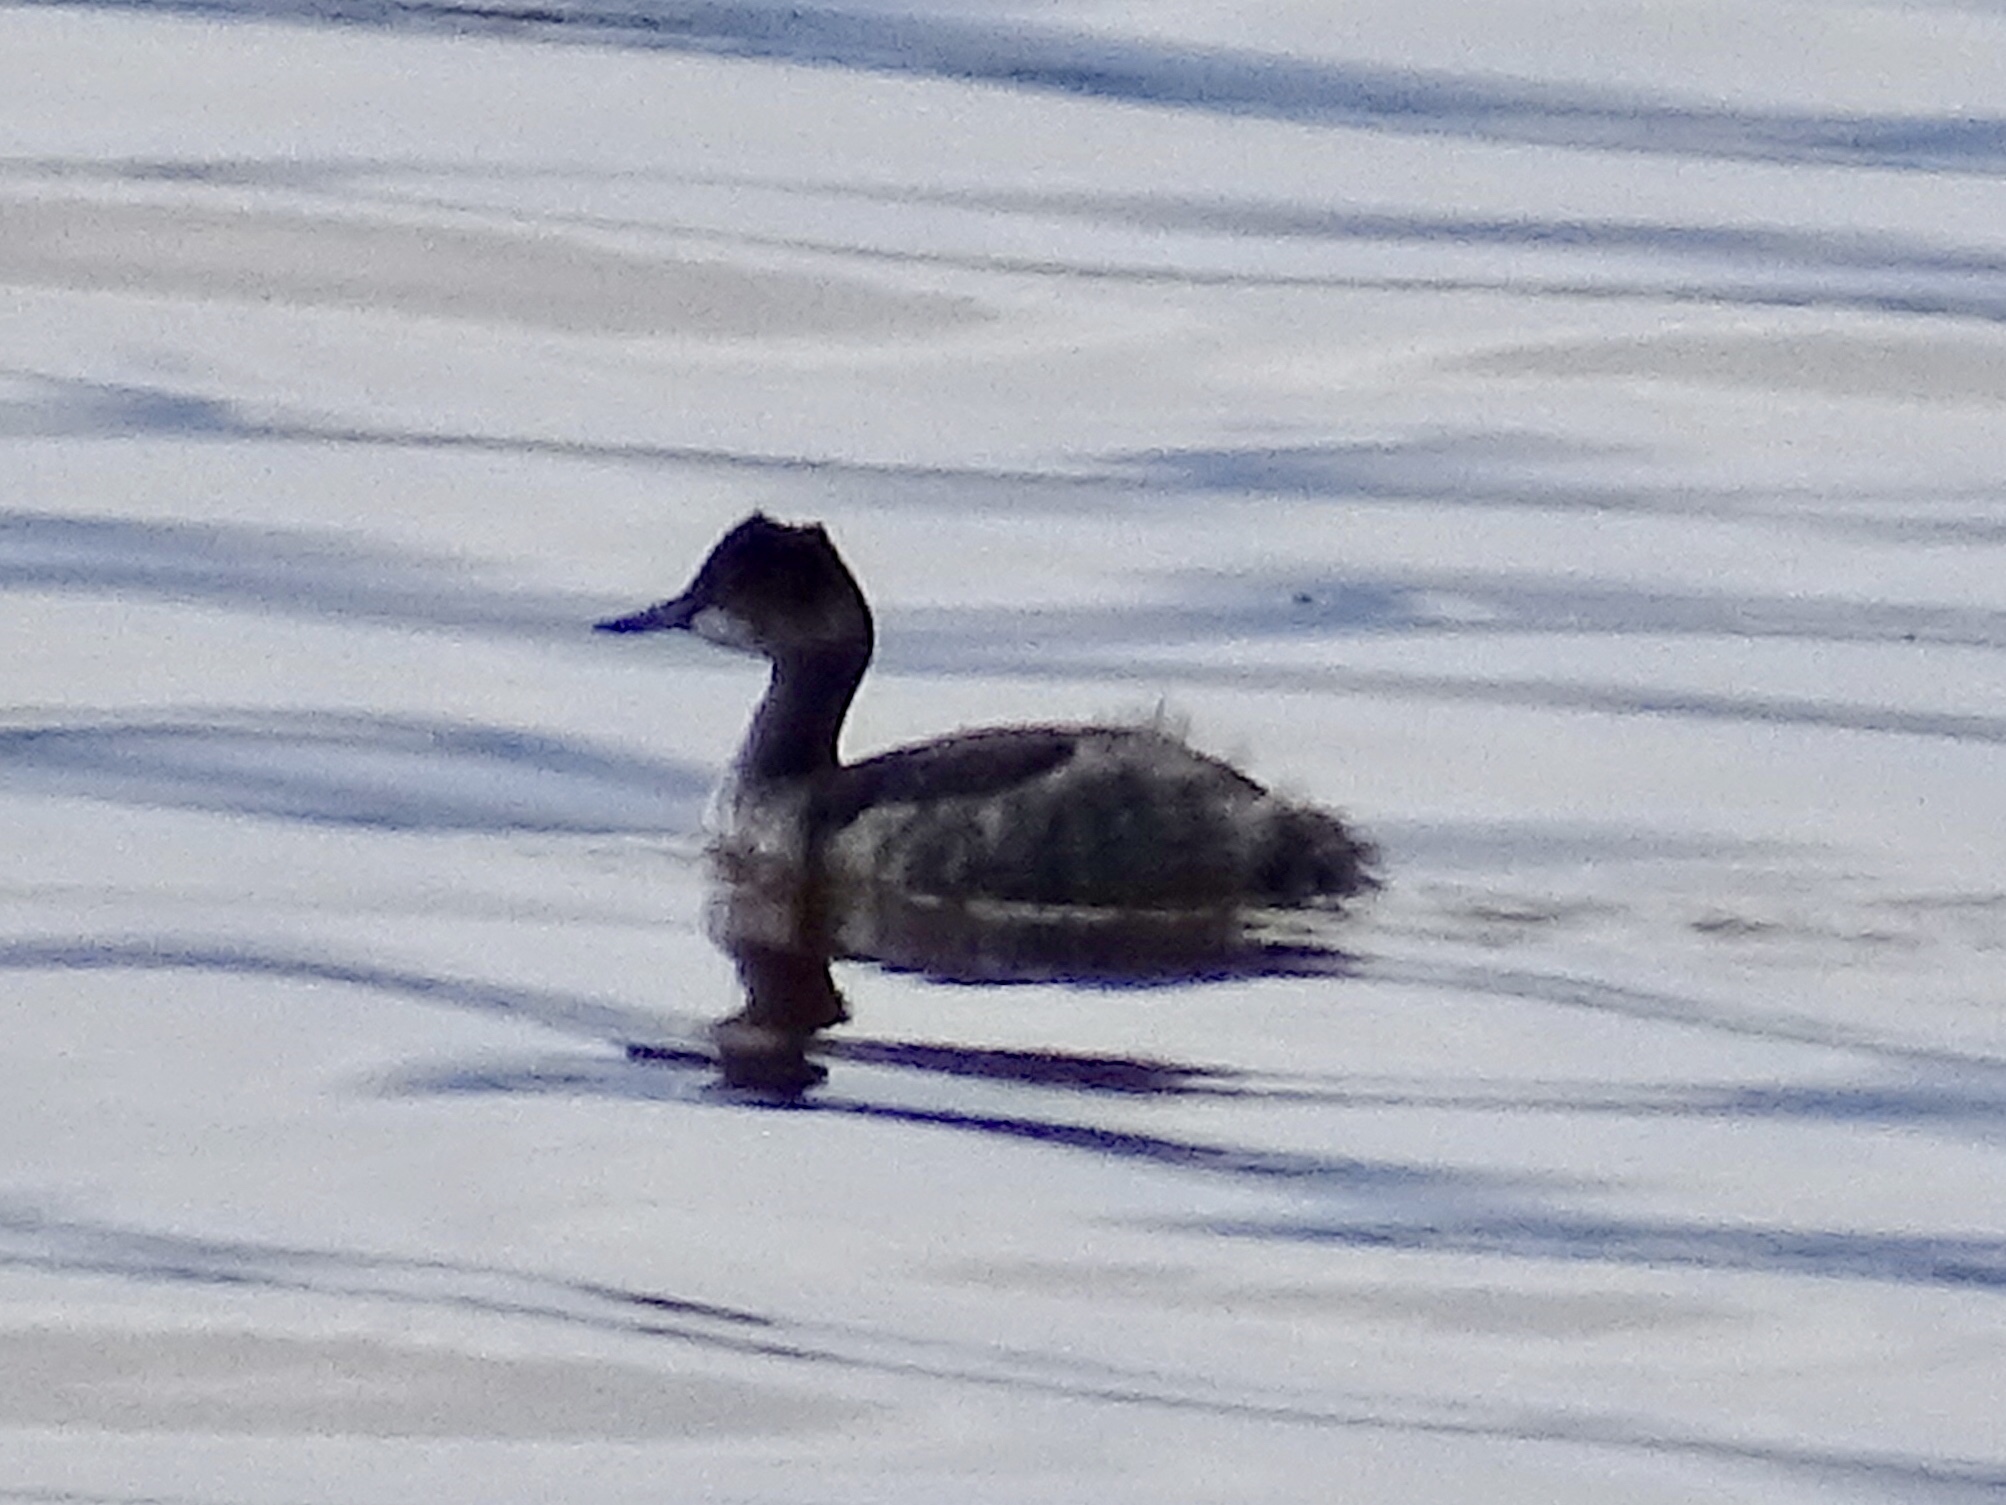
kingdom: Animalia
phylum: Chordata
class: Aves
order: Podicipediformes
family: Podicipedidae
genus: Podiceps
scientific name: Podiceps nigricollis
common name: Black-necked grebe
